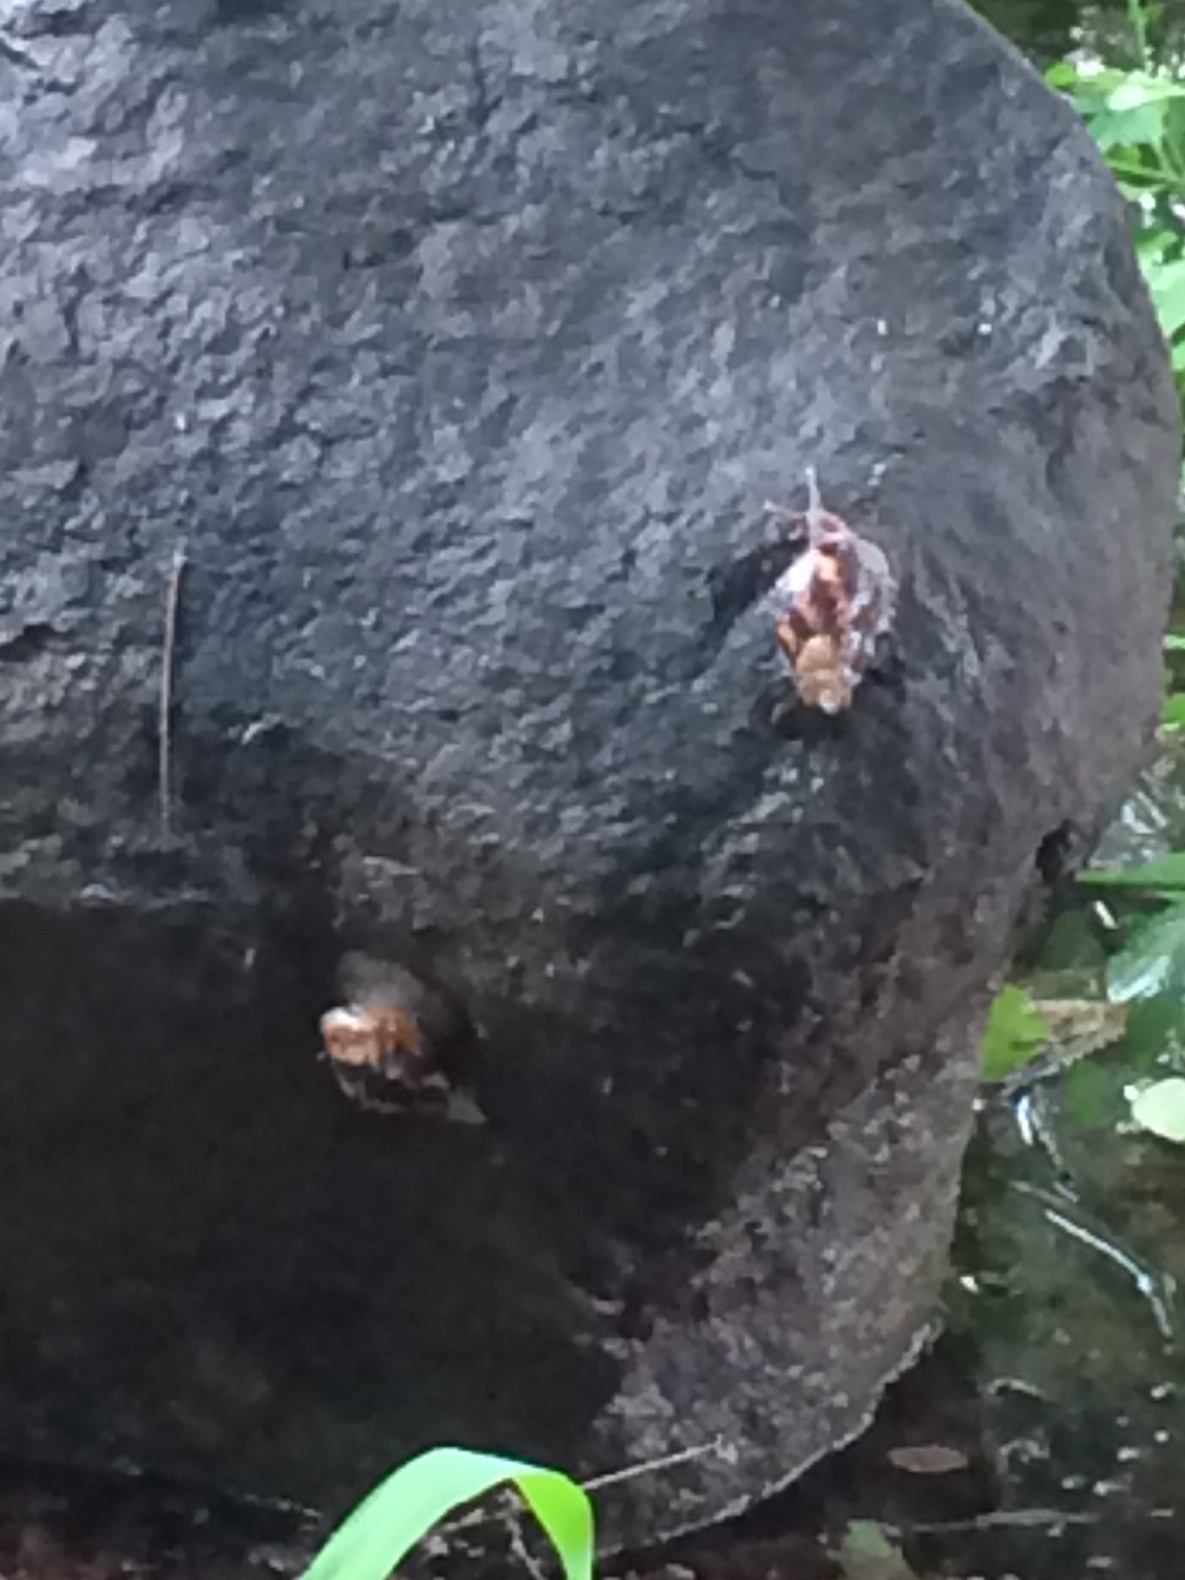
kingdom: Animalia
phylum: Mollusca
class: Gastropoda
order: Stylommatophora
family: Achatinidae
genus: Lissachatina
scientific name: Lissachatina fulica
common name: Giant african snail
